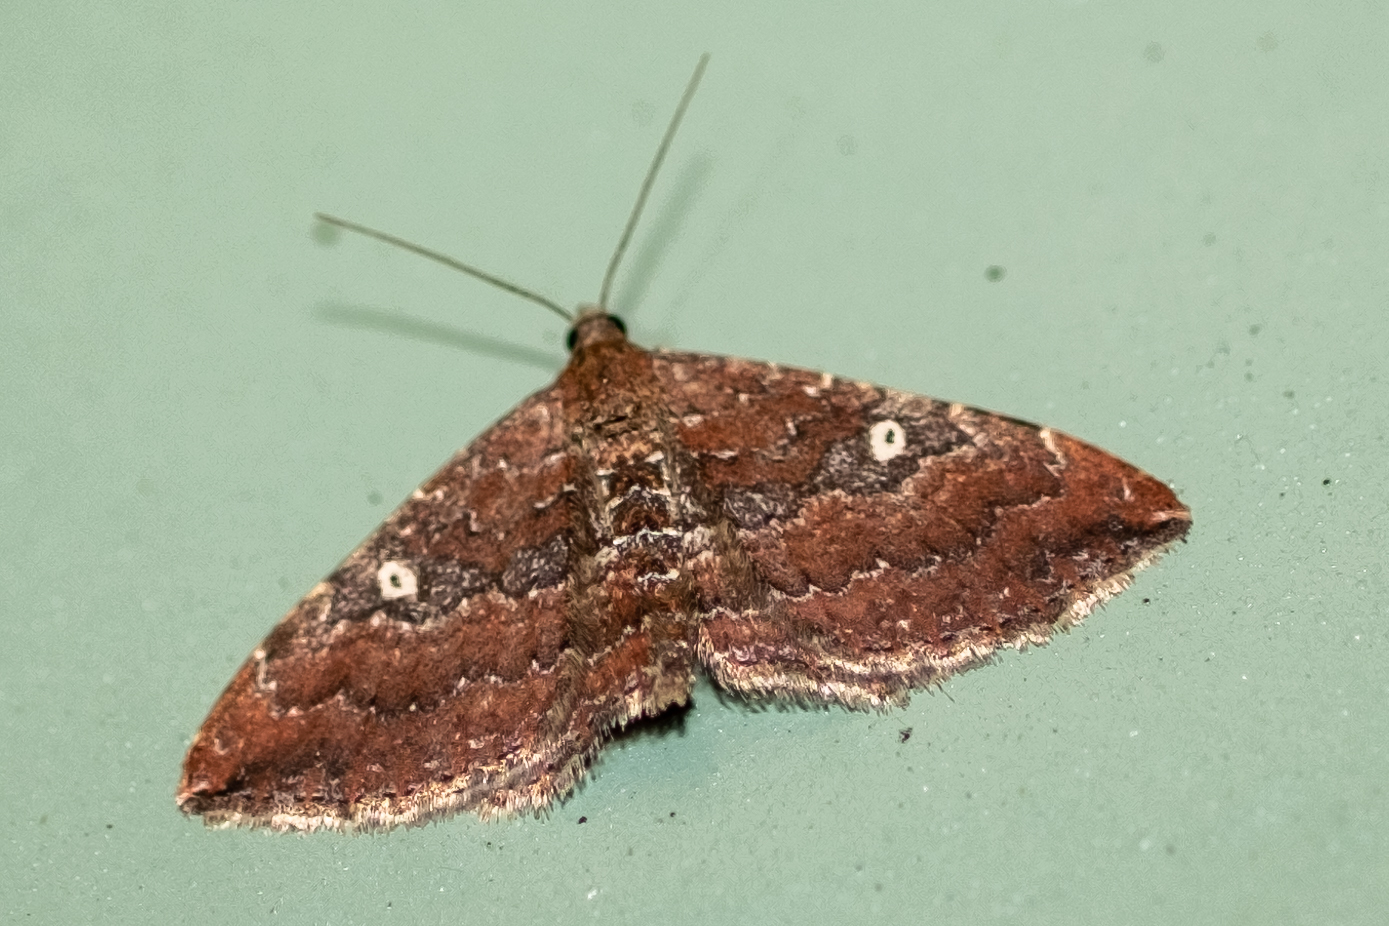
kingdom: Animalia
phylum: Arthropoda
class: Insecta
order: Lepidoptera
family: Geometridae
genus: Orthonama
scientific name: Orthonama obstipata
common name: The gem
